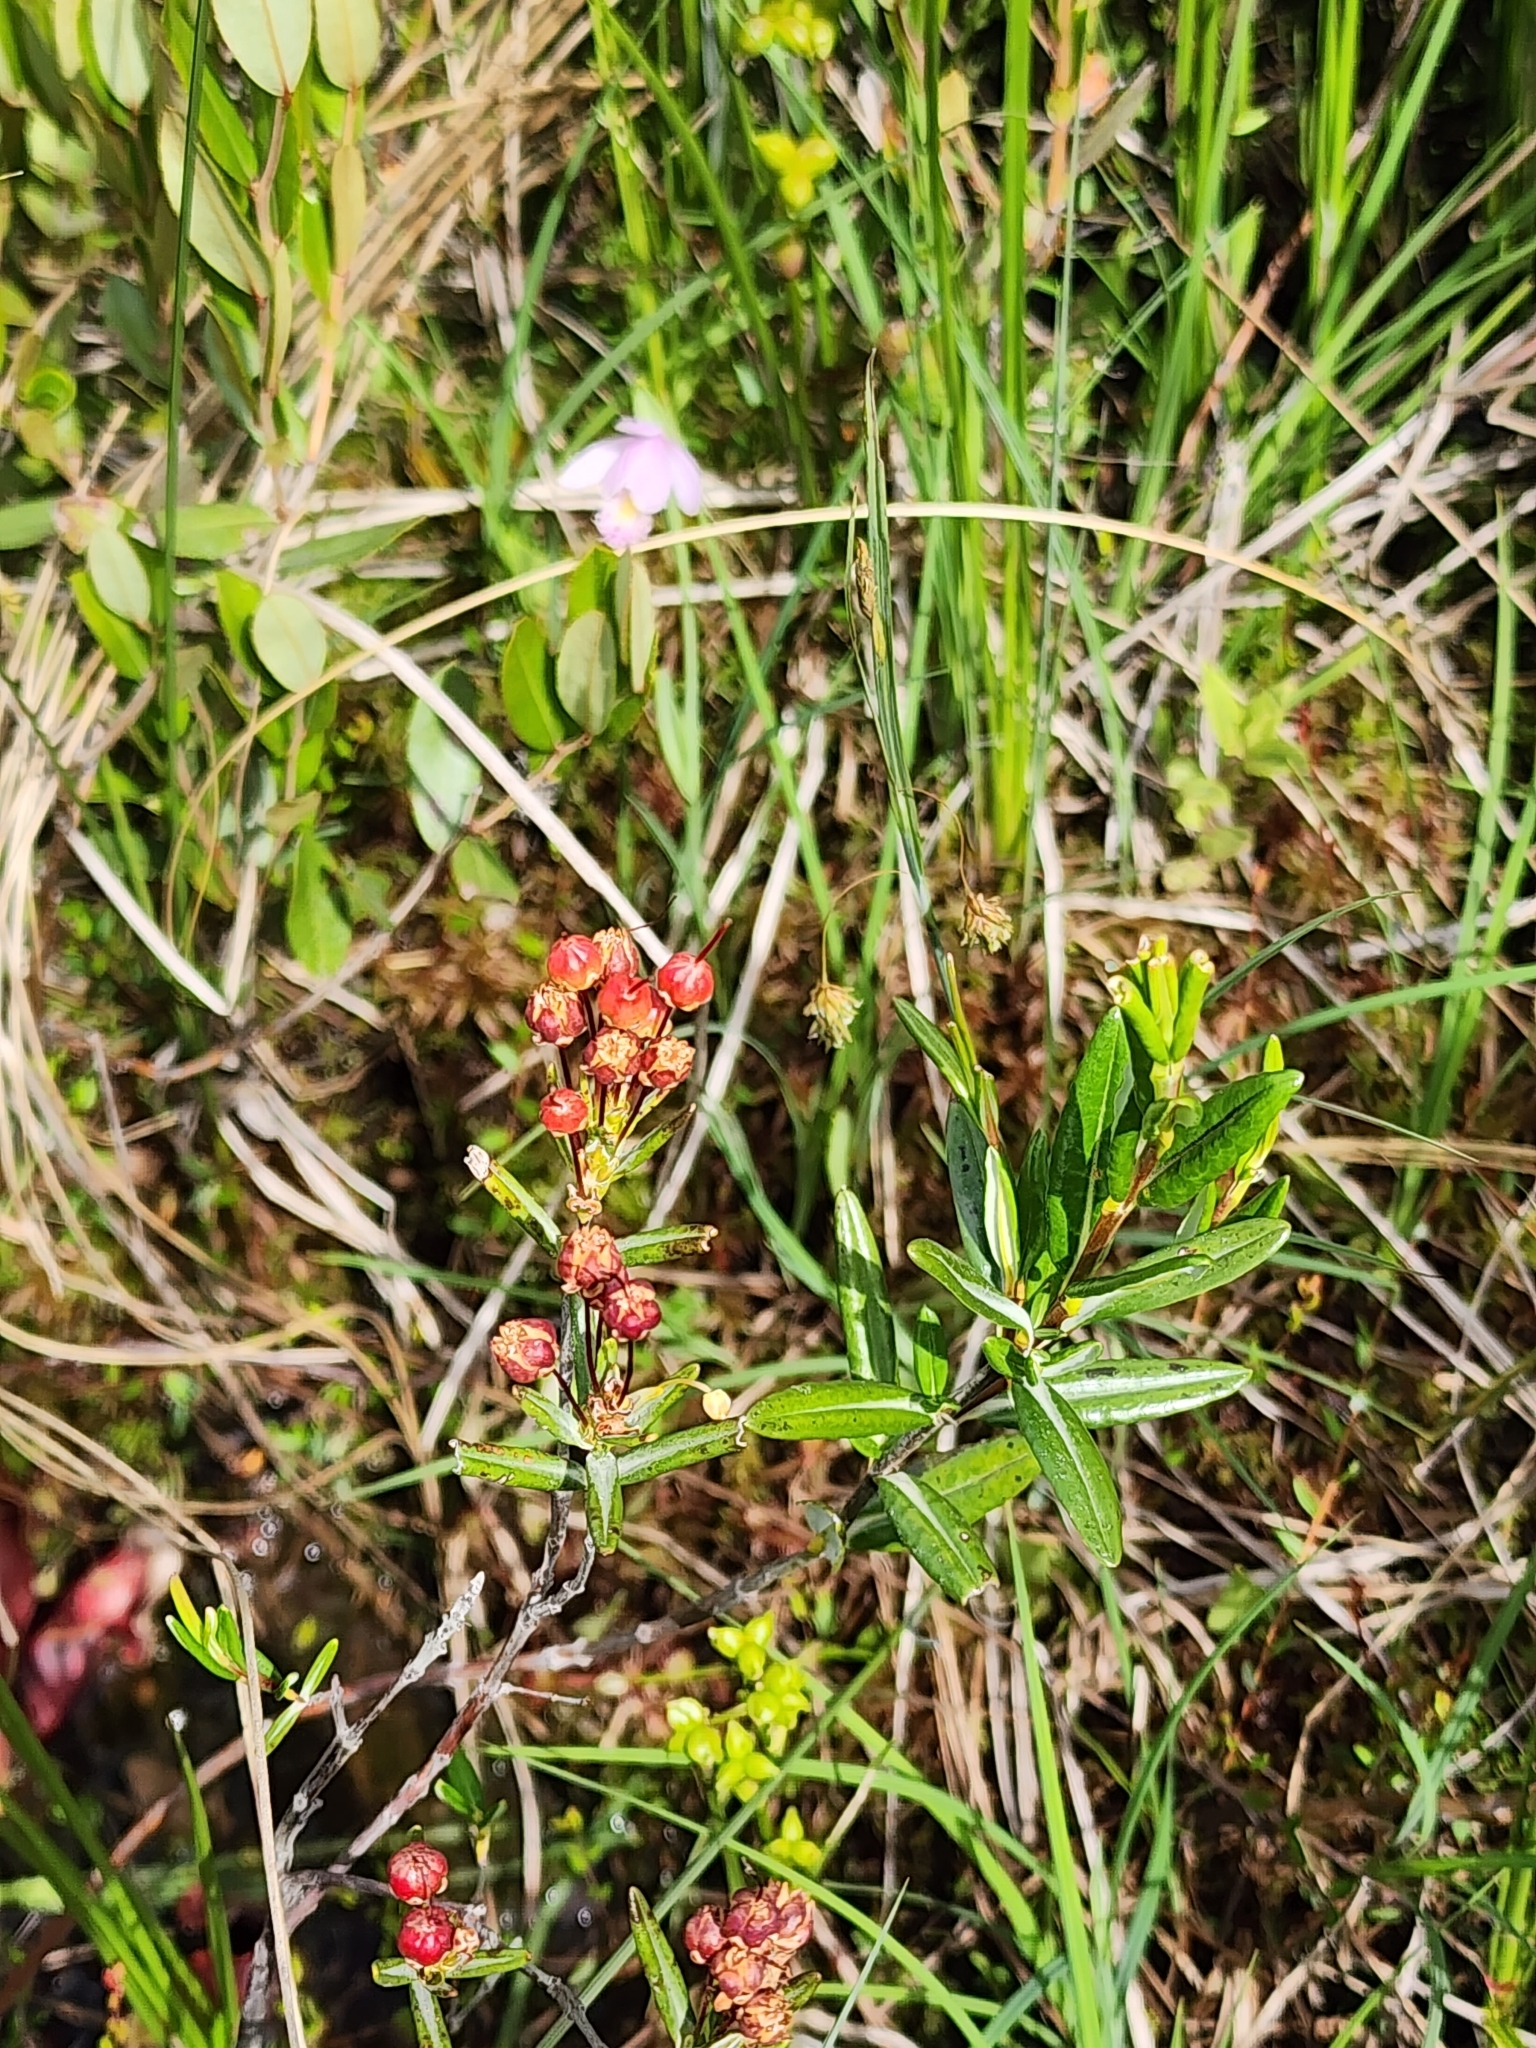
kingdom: Plantae
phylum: Tracheophyta
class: Magnoliopsida
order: Ericales
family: Ericaceae
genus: Kalmia
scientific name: Kalmia polifolia
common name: Bog-laurel
